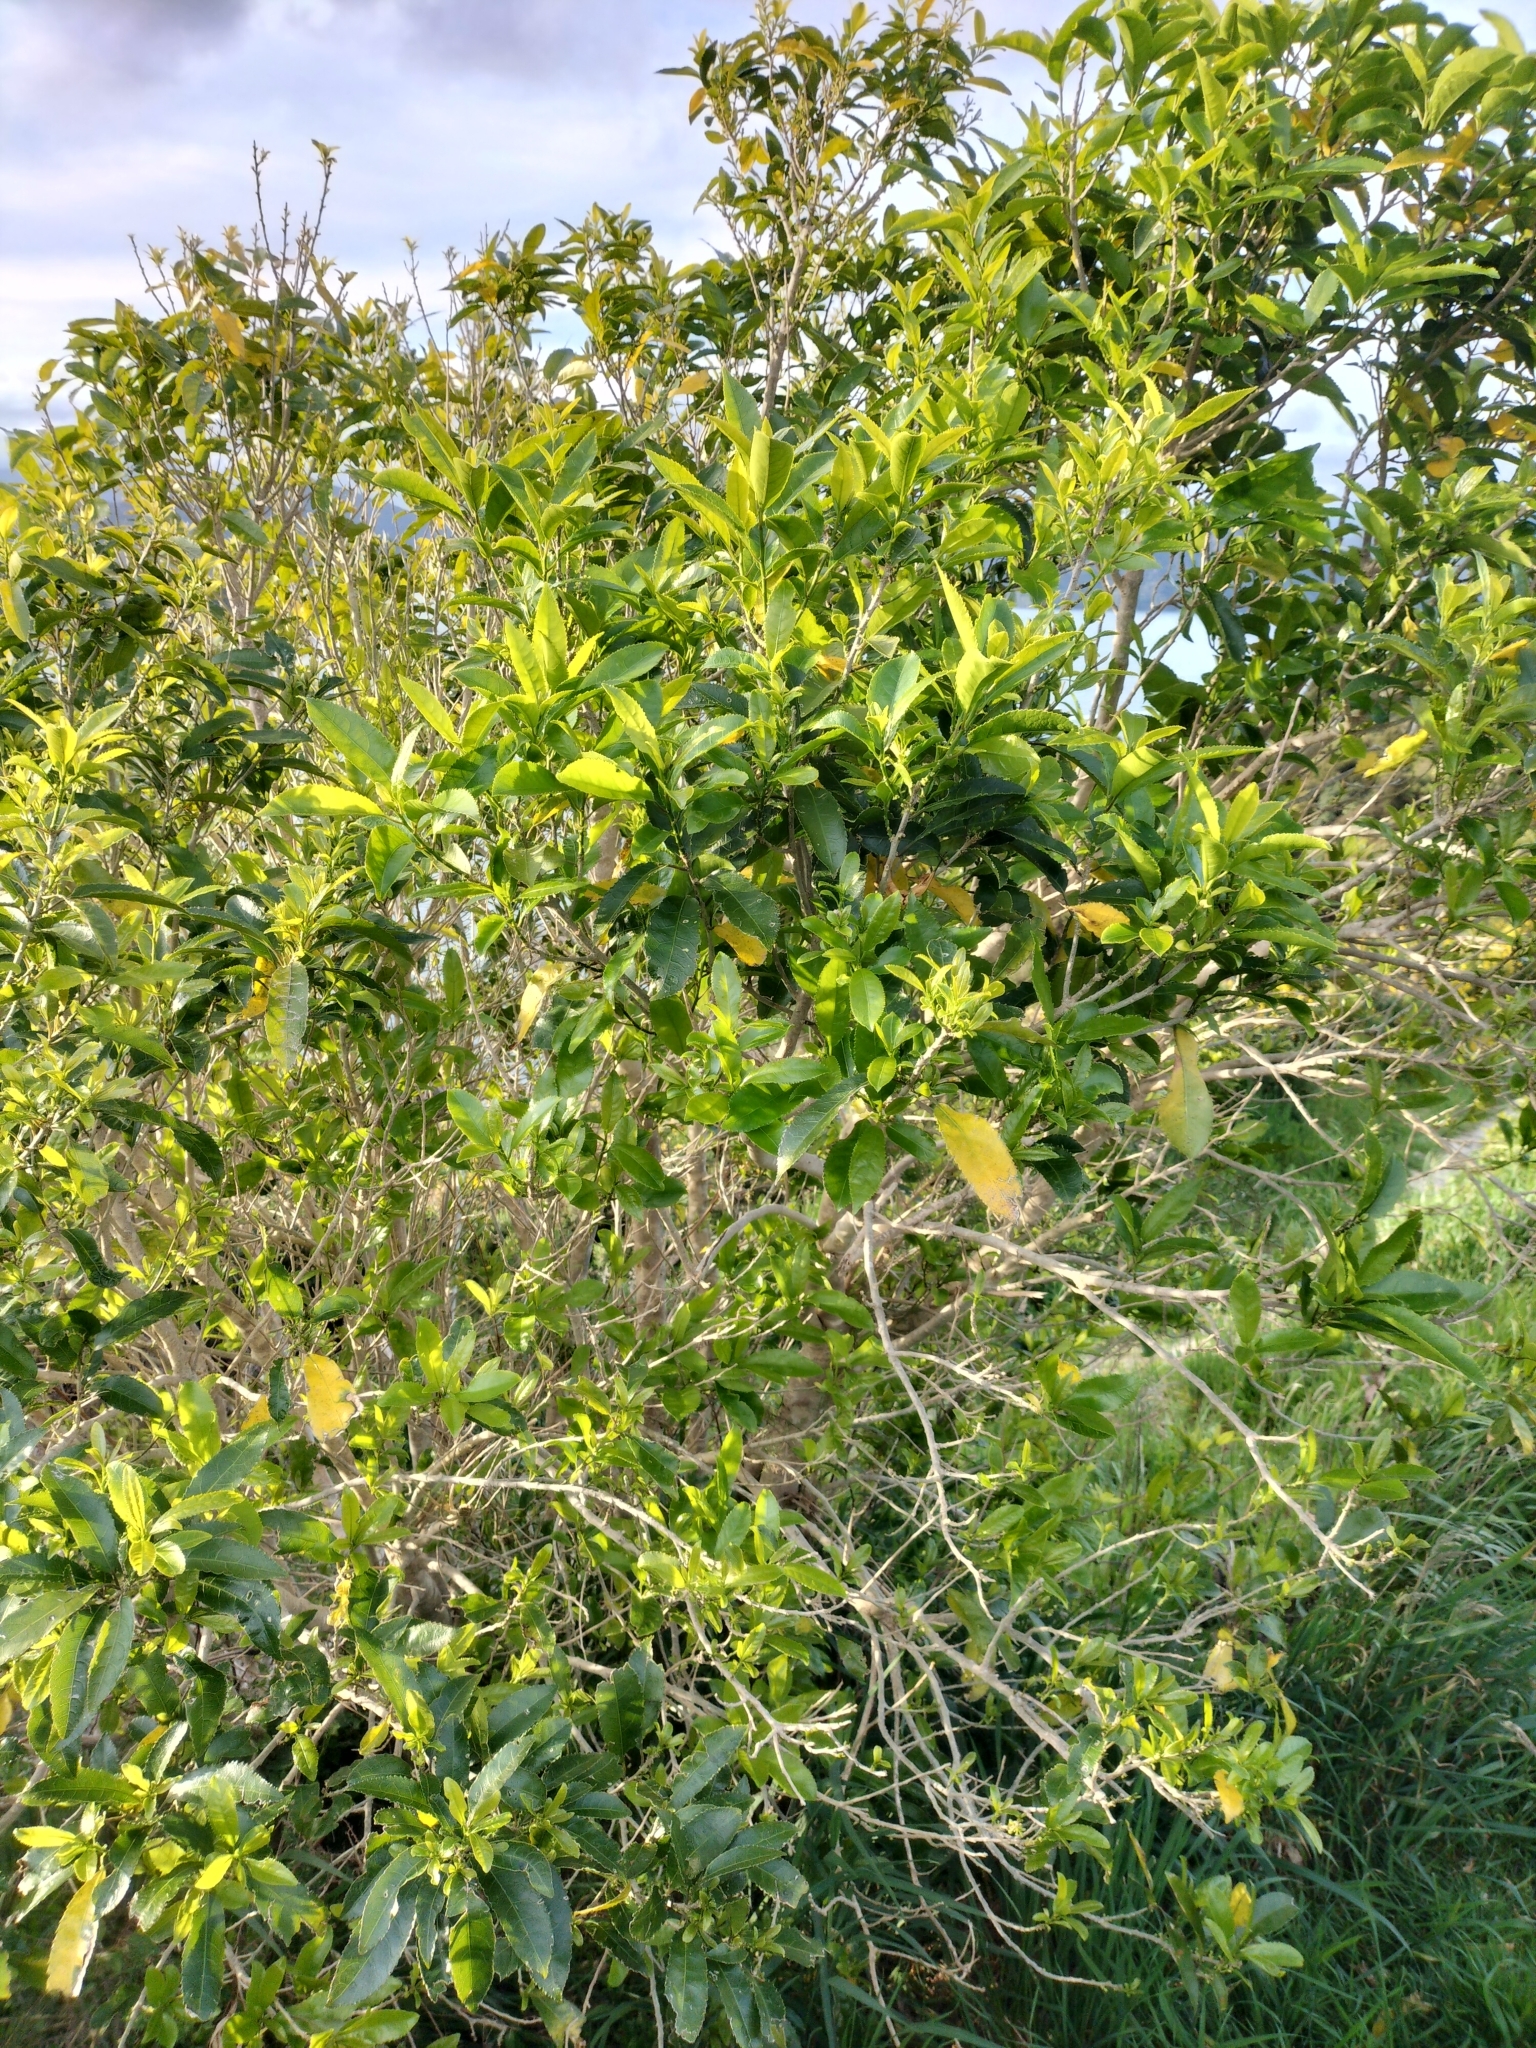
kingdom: Plantae
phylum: Tracheophyta
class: Magnoliopsida
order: Malpighiales
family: Violaceae
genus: Melicytus
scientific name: Melicytus ramiflorus
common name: Mahoe
